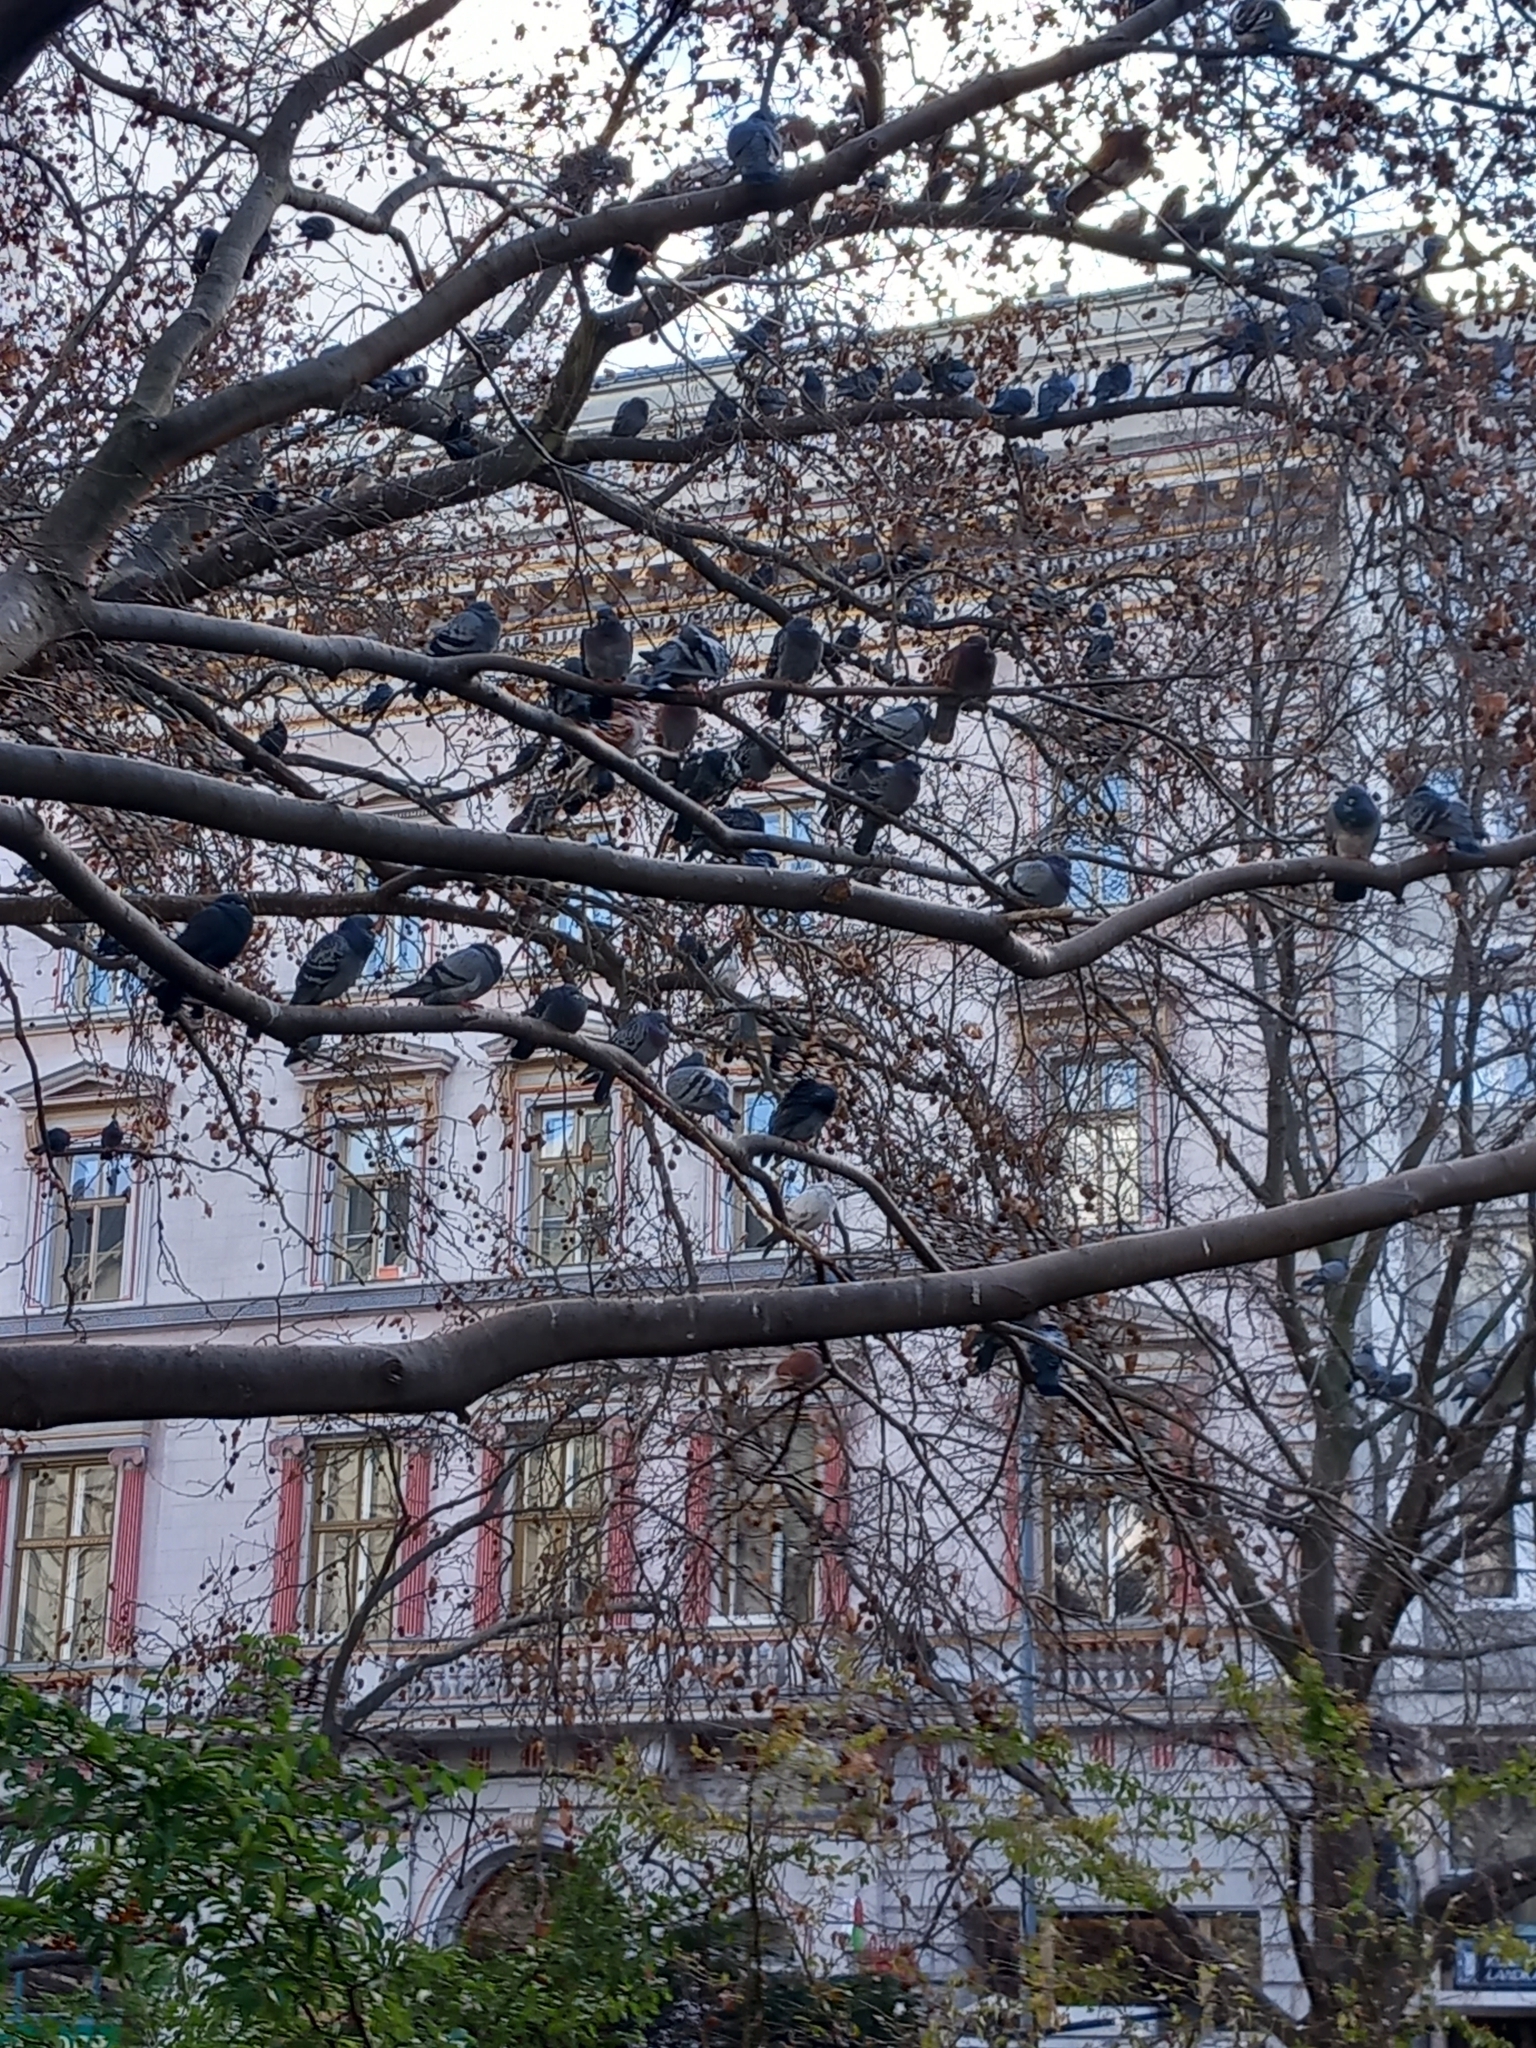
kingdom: Animalia
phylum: Chordata
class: Aves
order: Columbiformes
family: Columbidae
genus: Columba
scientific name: Columba livia
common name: Rock pigeon
